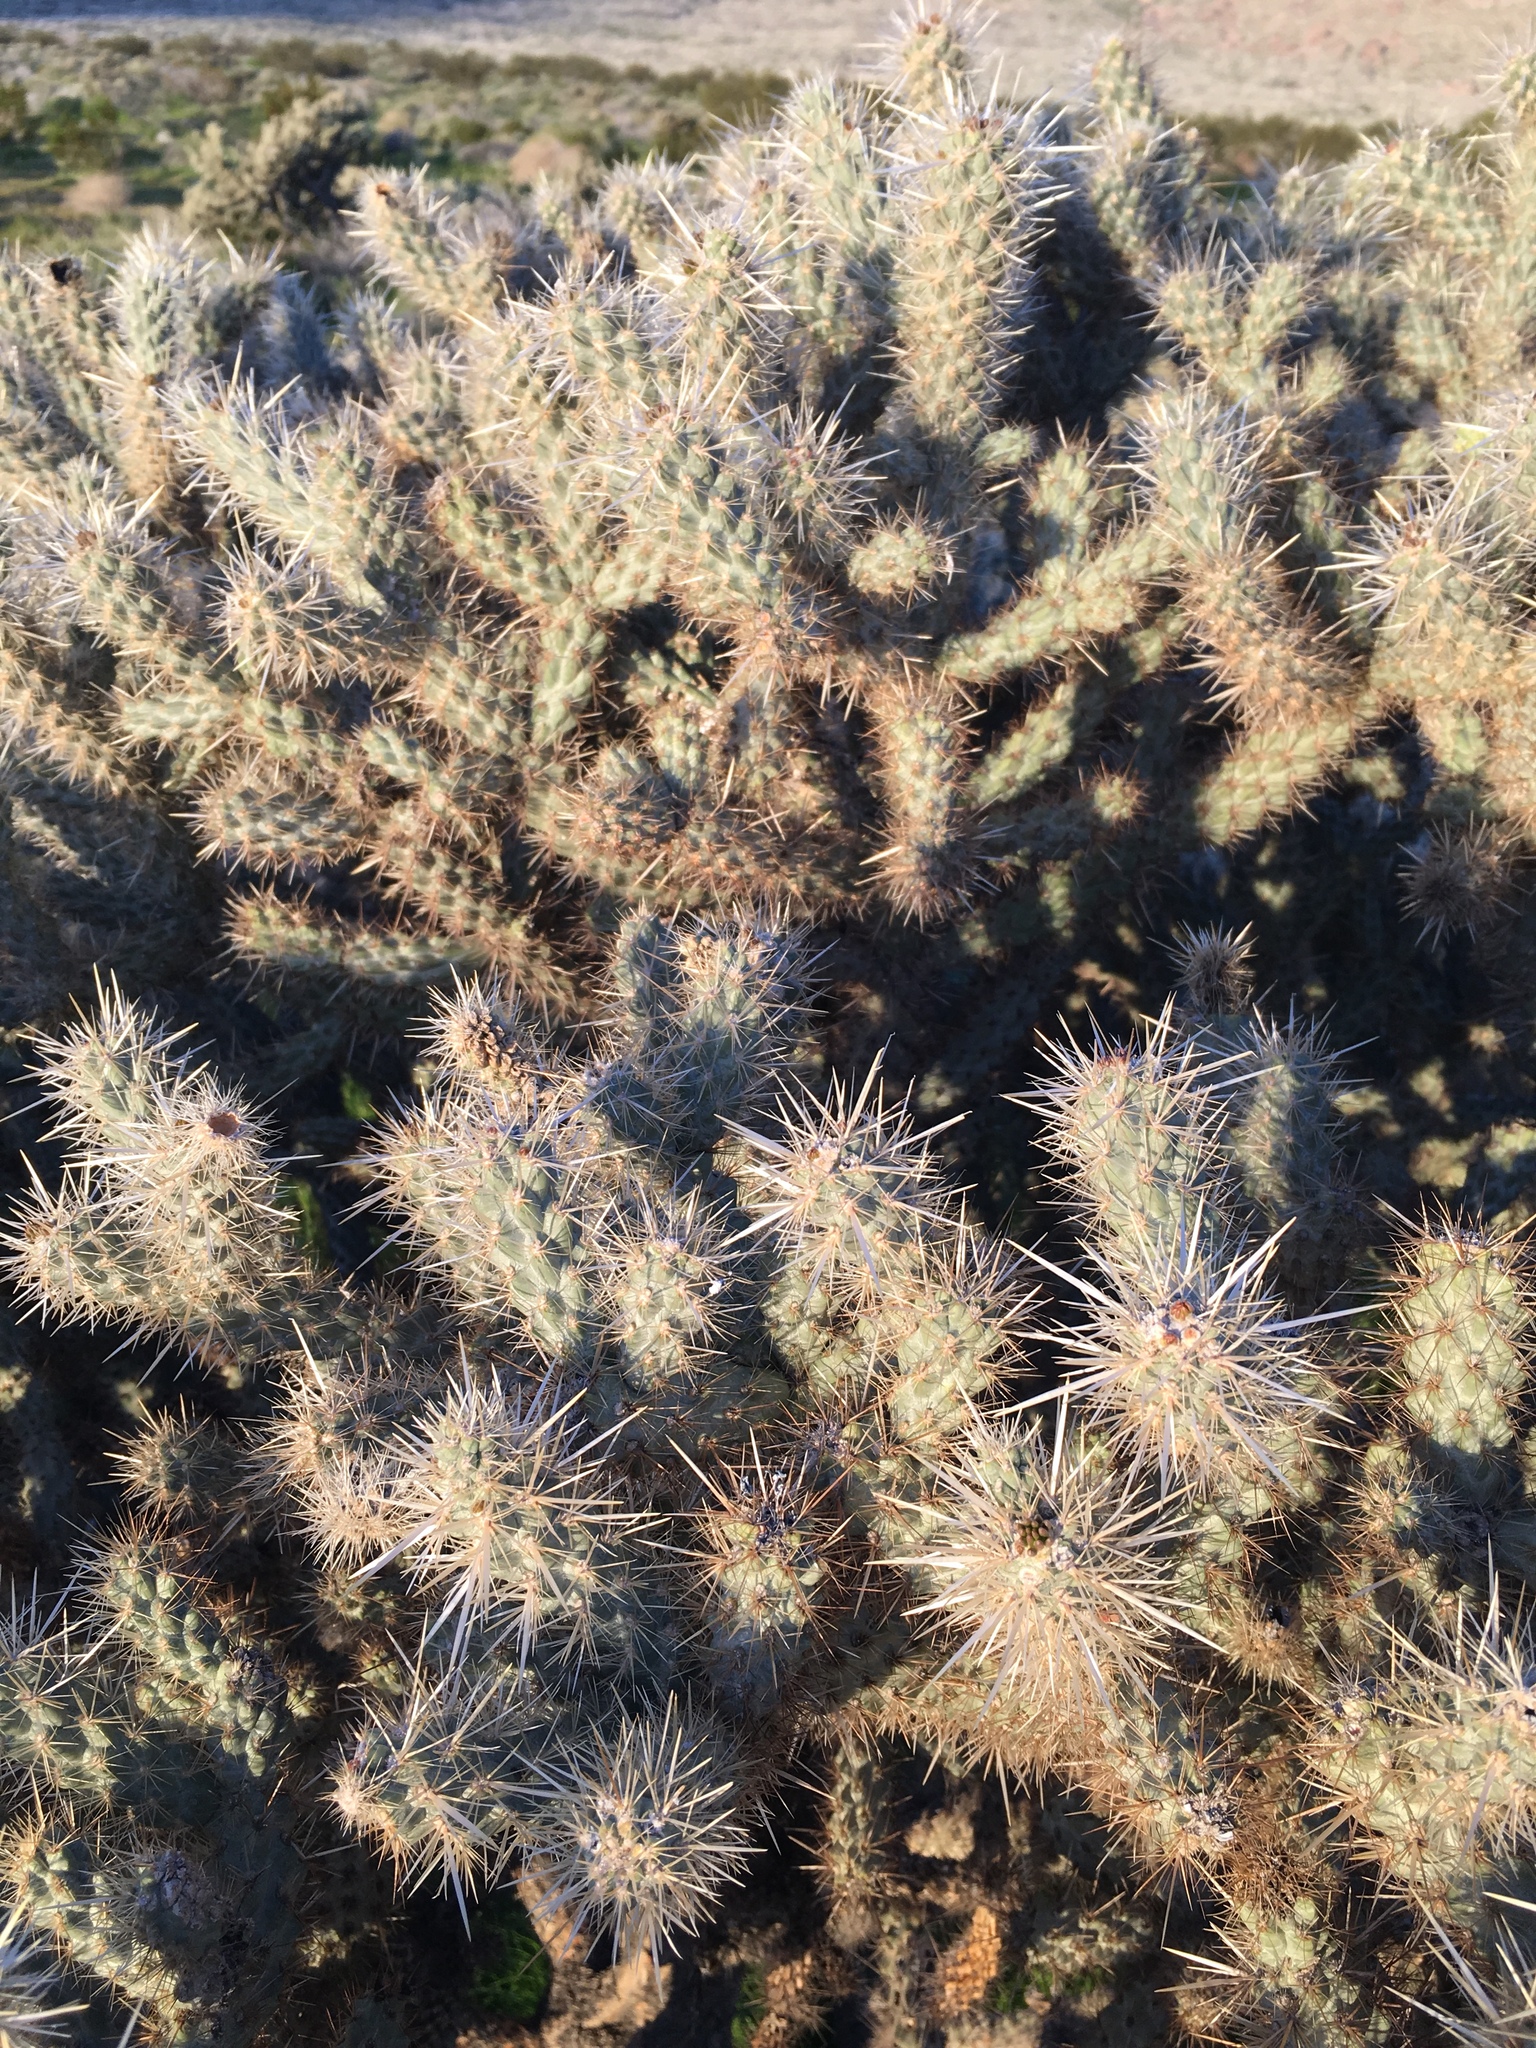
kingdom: Plantae
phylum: Tracheophyta
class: Magnoliopsida
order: Caryophyllales
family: Cactaceae
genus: Cylindropuntia
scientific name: Cylindropuntia echinocarpa
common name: Ground cholla
